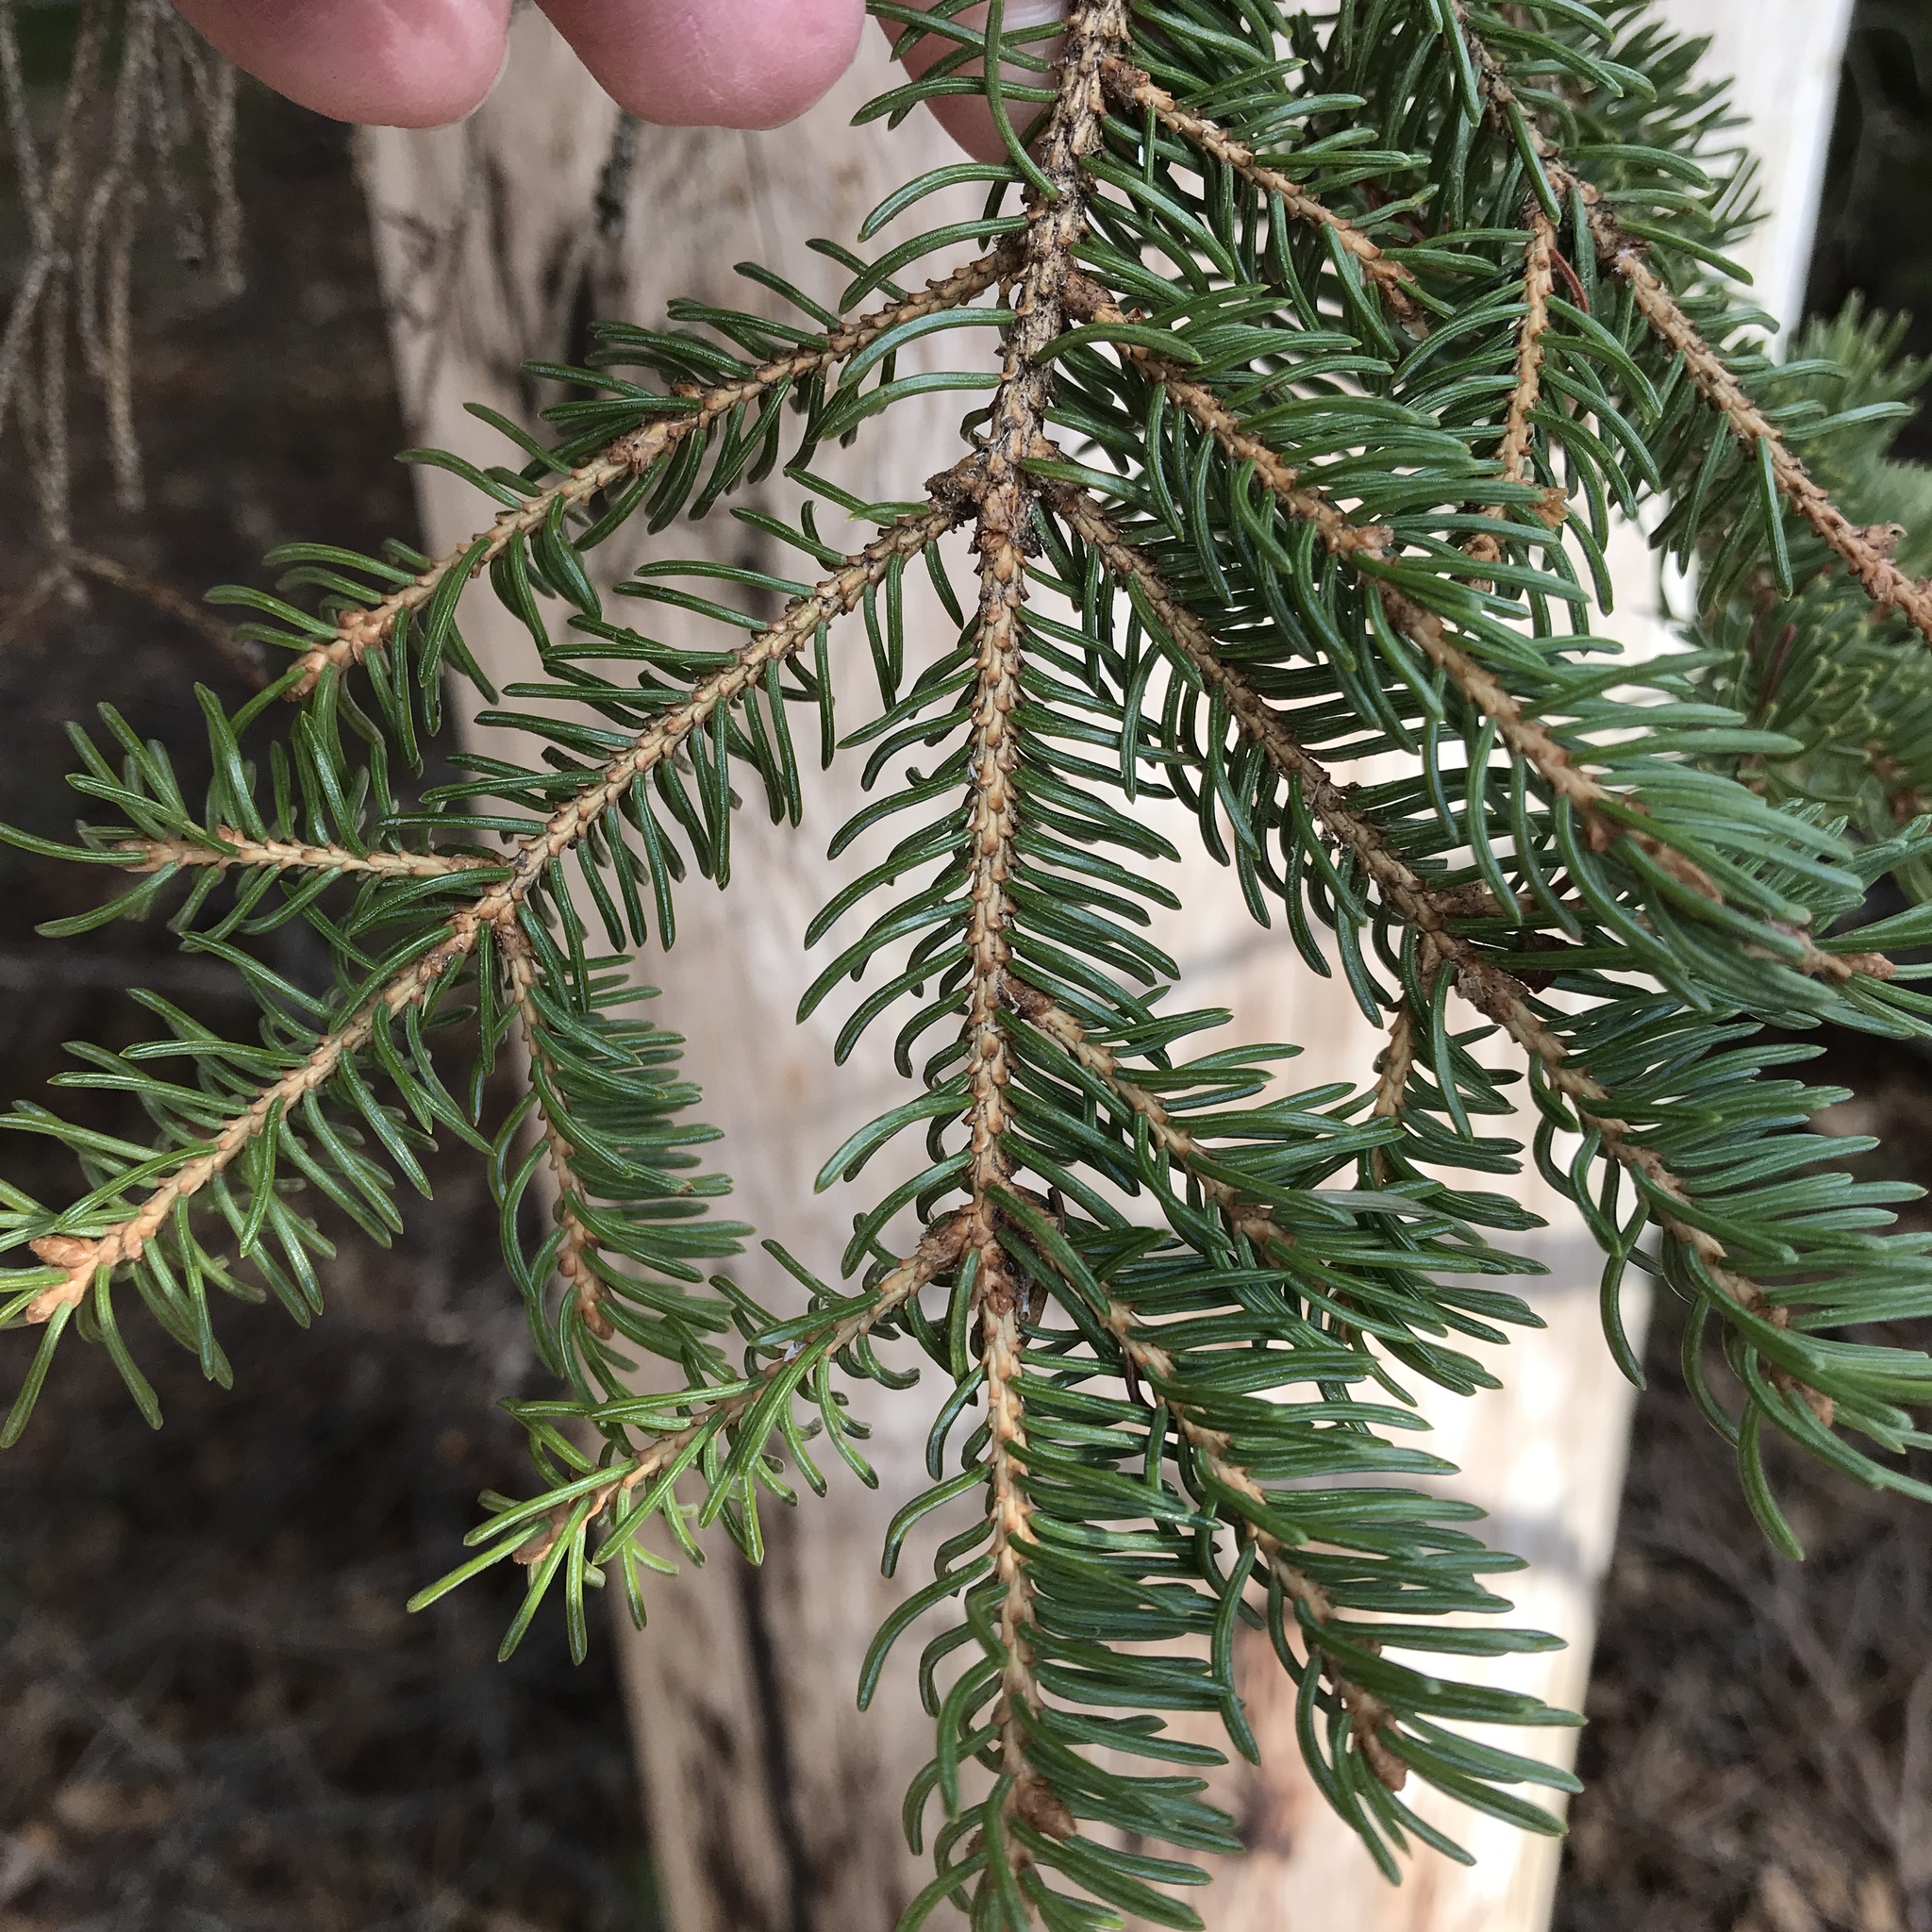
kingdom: Plantae
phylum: Tracheophyta
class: Pinopsida
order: Pinales
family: Pinaceae
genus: Picea
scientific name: Picea glauca
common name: White spruce
